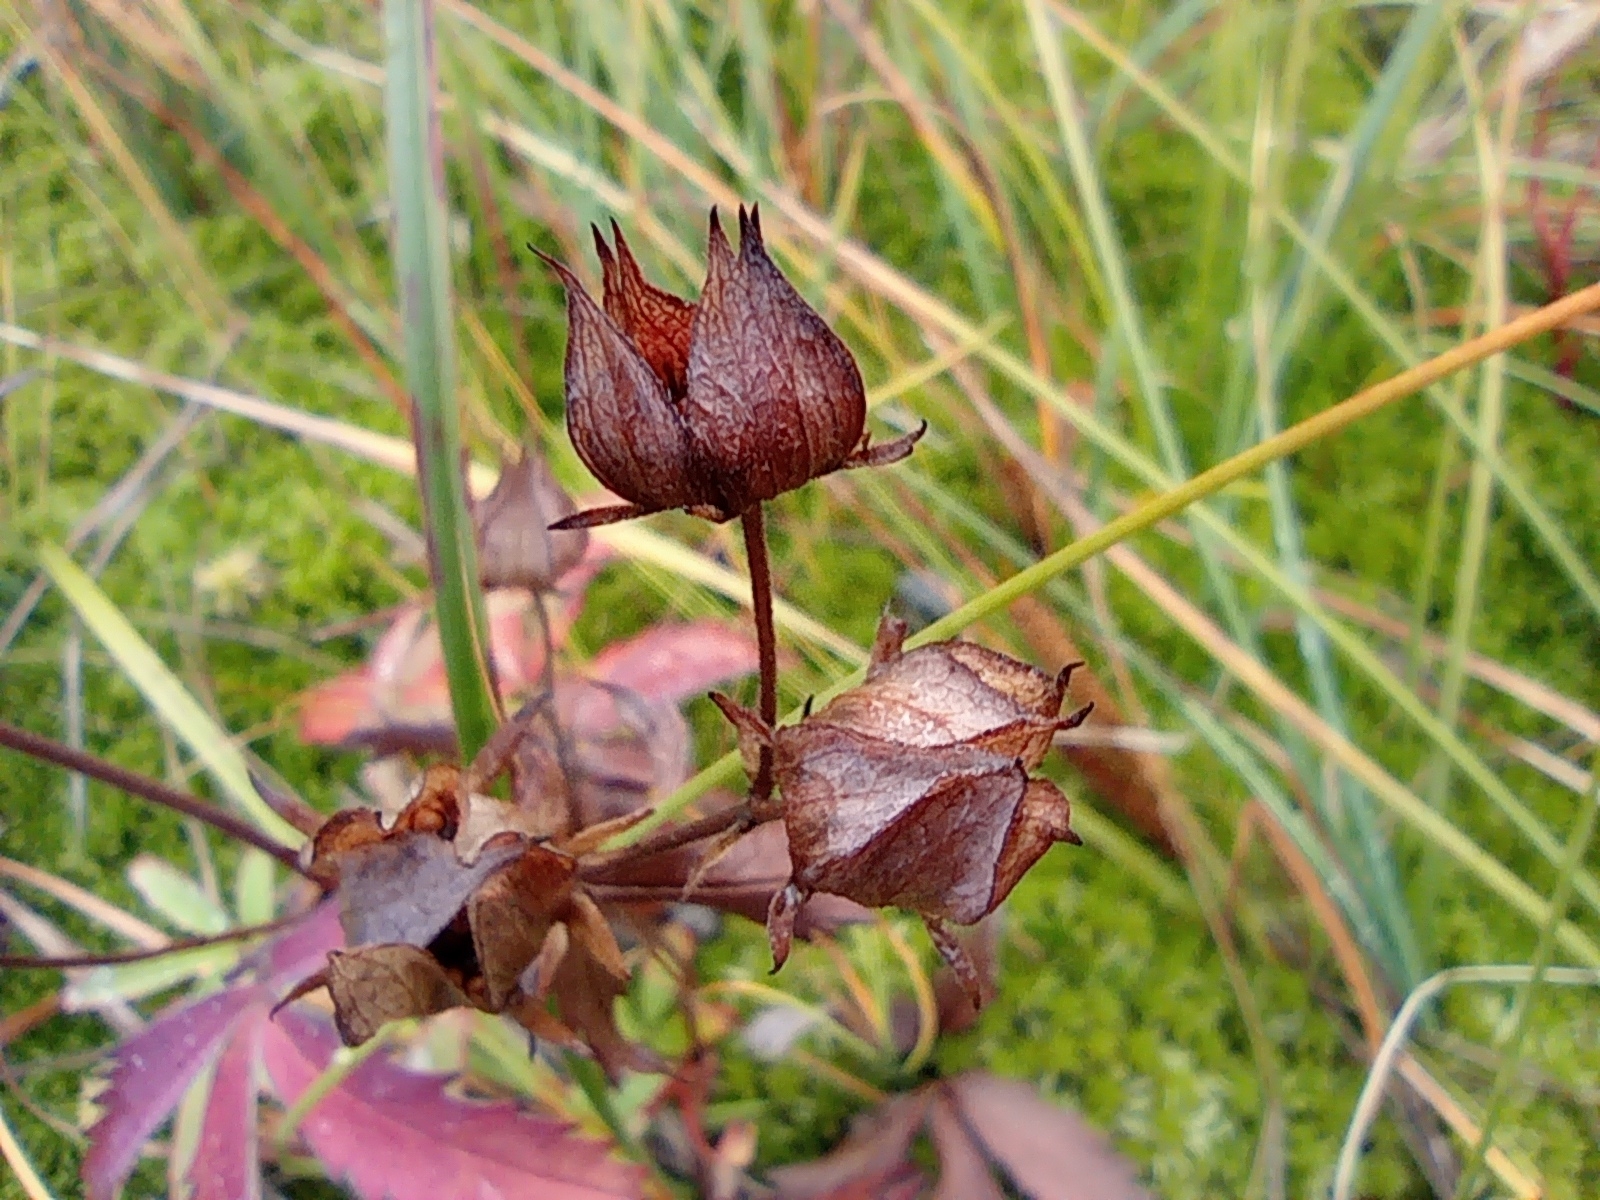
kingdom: Plantae
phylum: Tracheophyta
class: Magnoliopsida
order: Rosales
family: Rosaceae
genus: Comarum
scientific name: Comarum palustre
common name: Marsh cinquefoil
